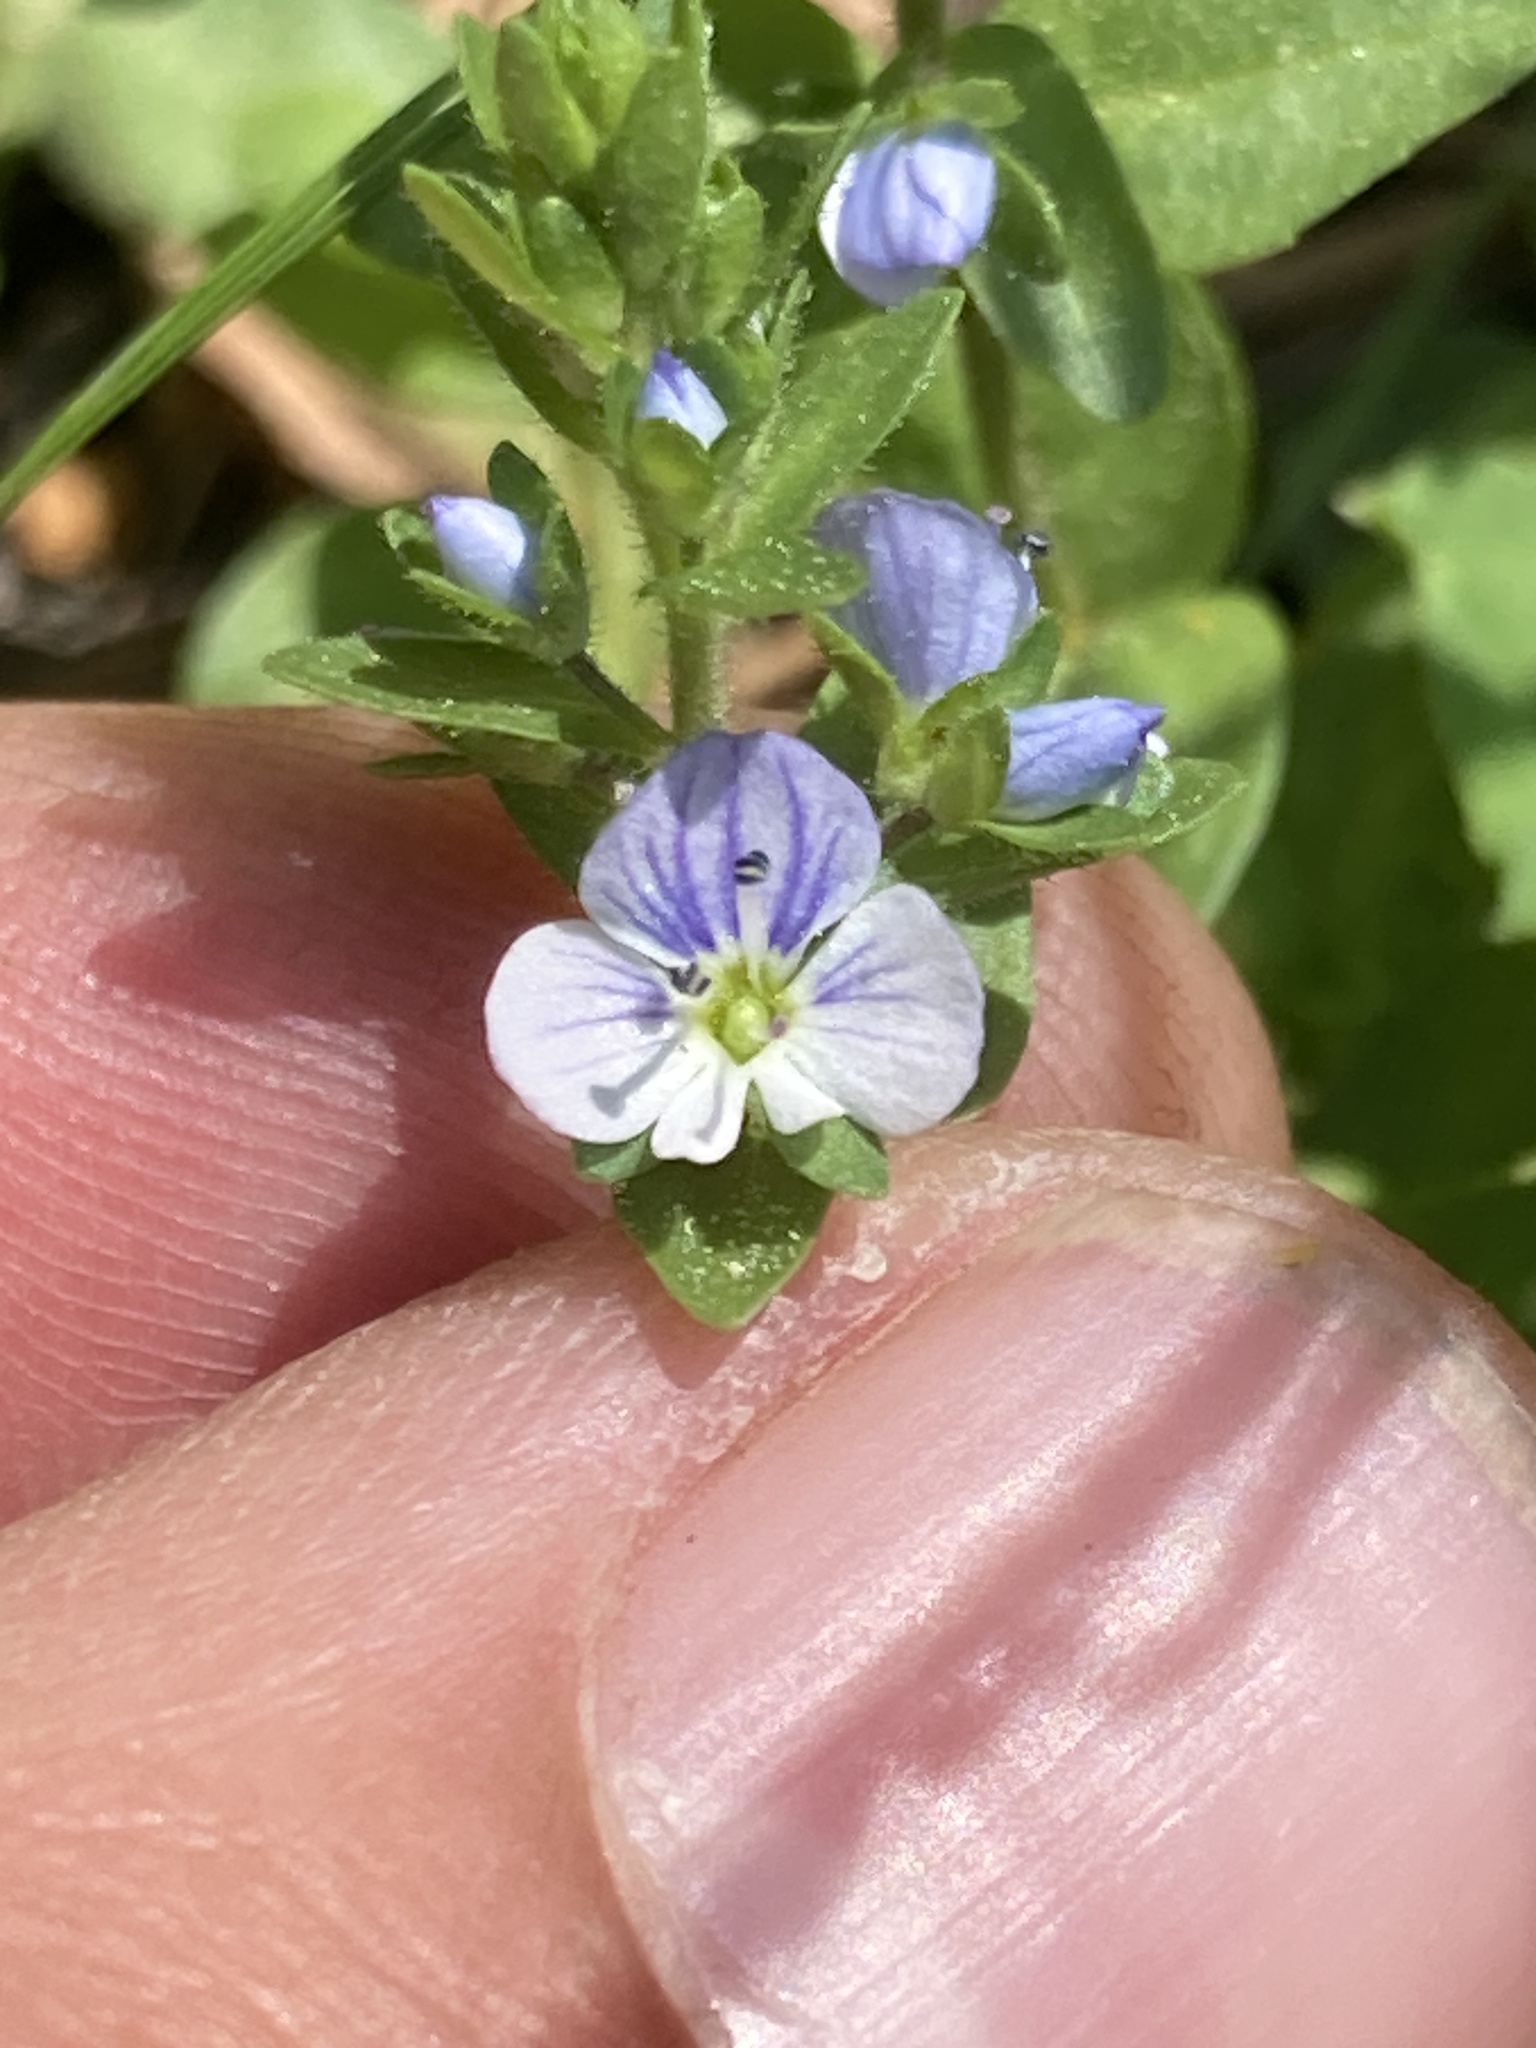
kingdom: Plantae
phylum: Tracheophyta
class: Magnoliopsida
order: Lamiales
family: Plantaginaceae
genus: Veronica
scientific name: Veronica serpyllifolia
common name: Thyme-leaved speedwell
